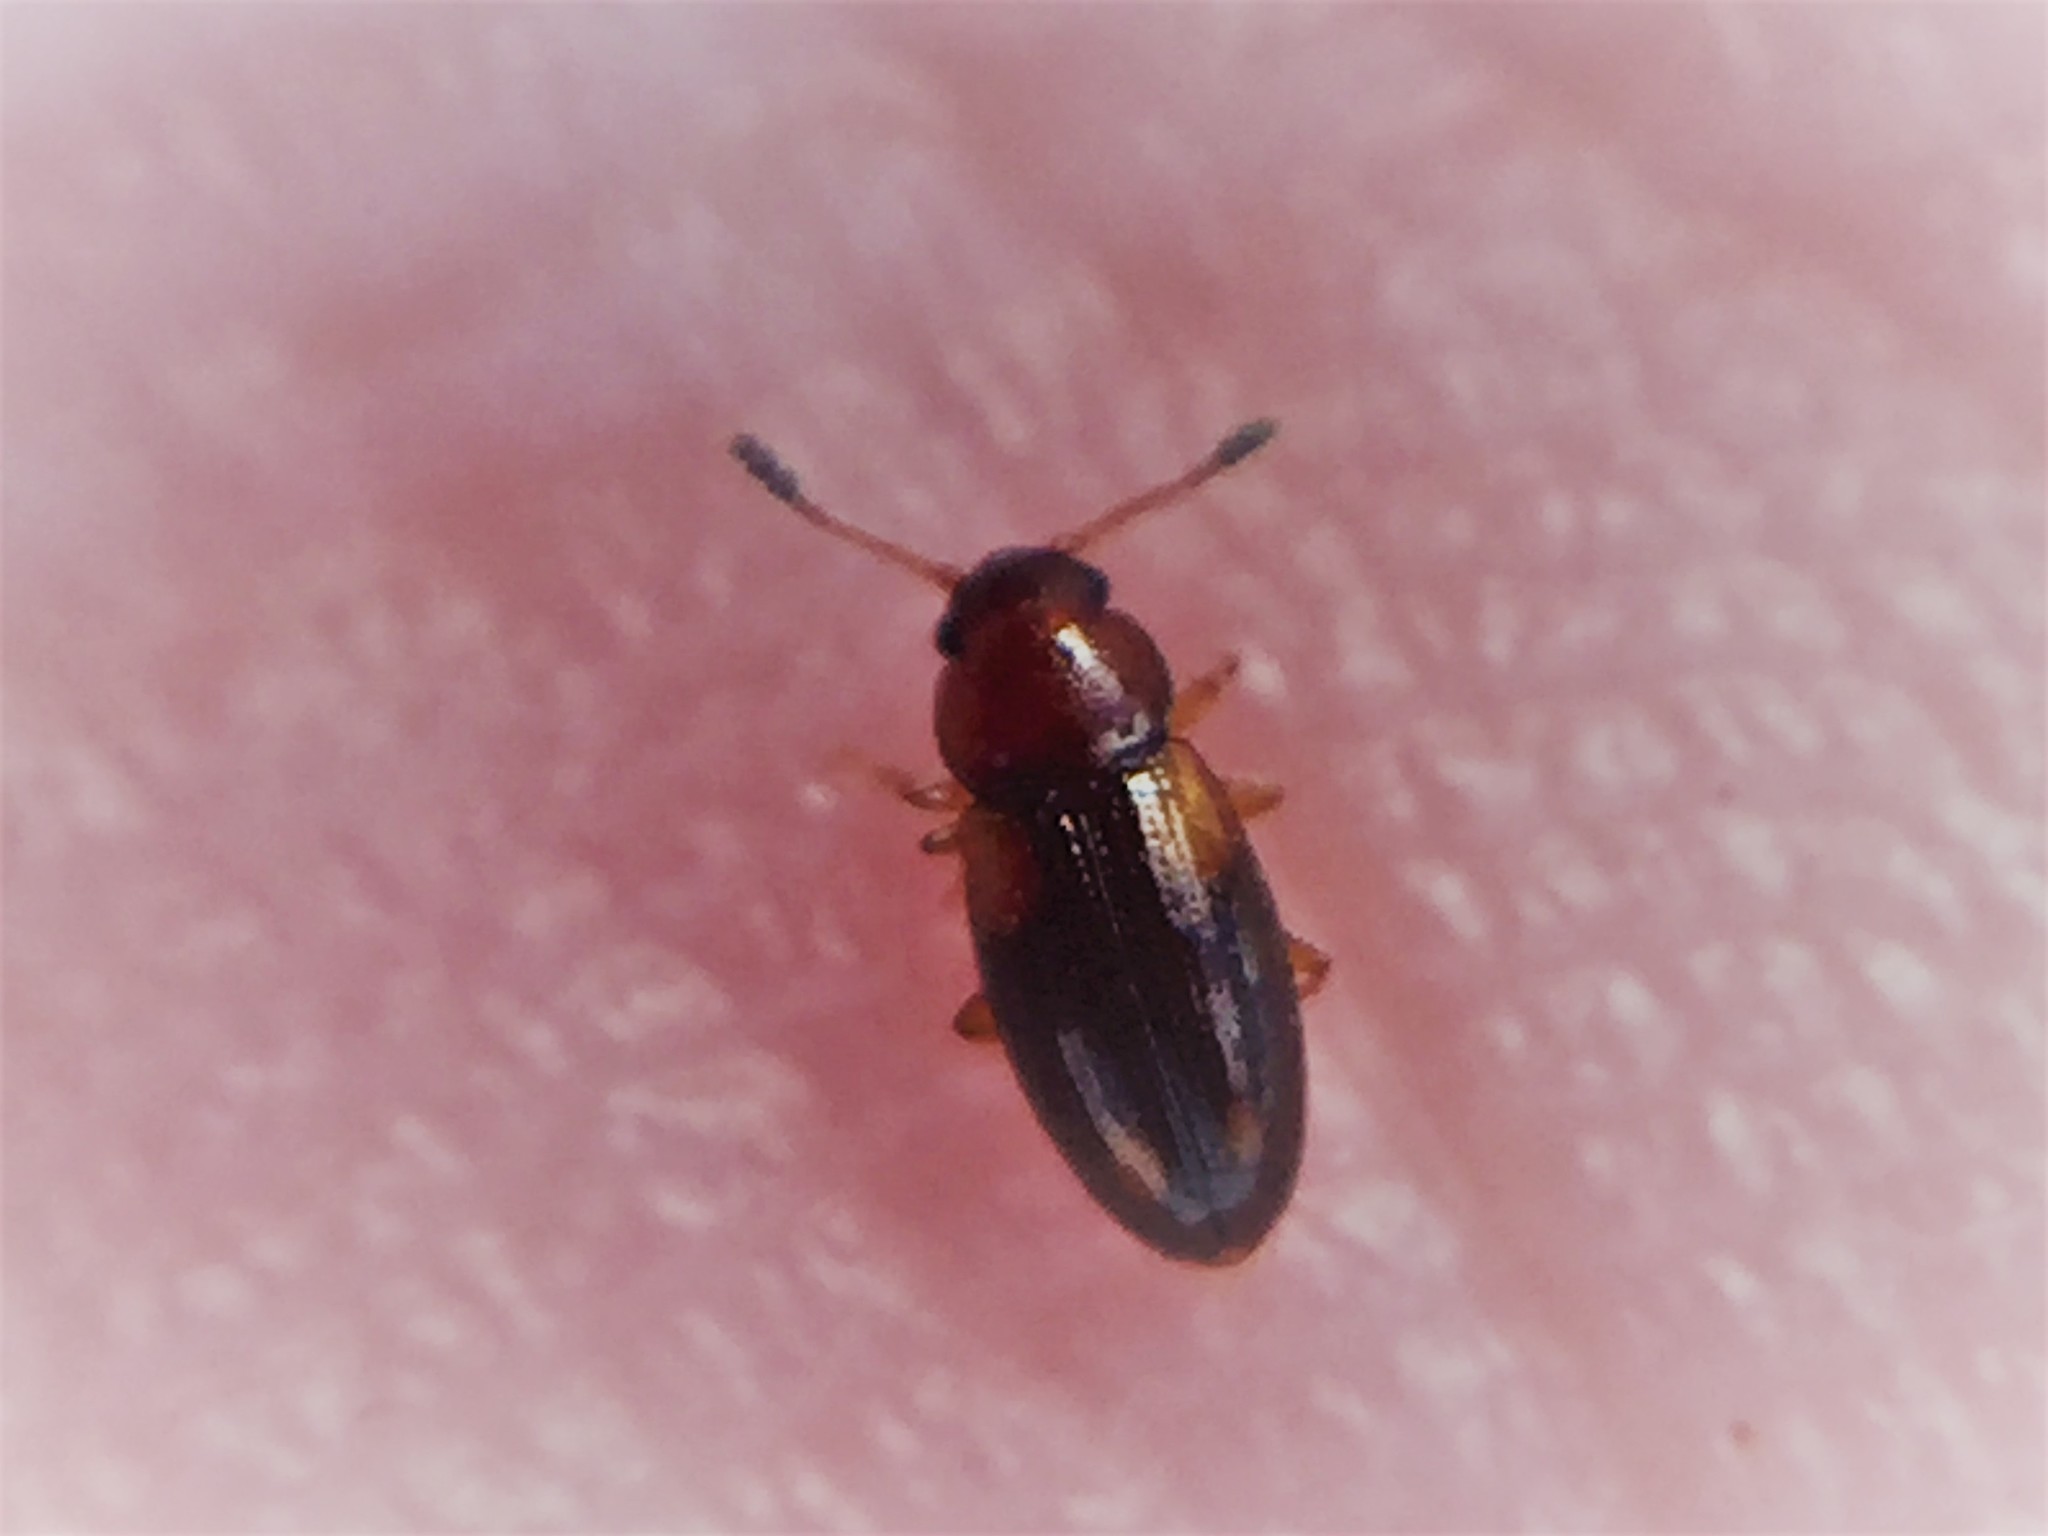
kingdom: Animalia
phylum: Arthropoda
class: Insecta
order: Coleoptera
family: Erotylidae
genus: Loberus
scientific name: Loberus nitens
